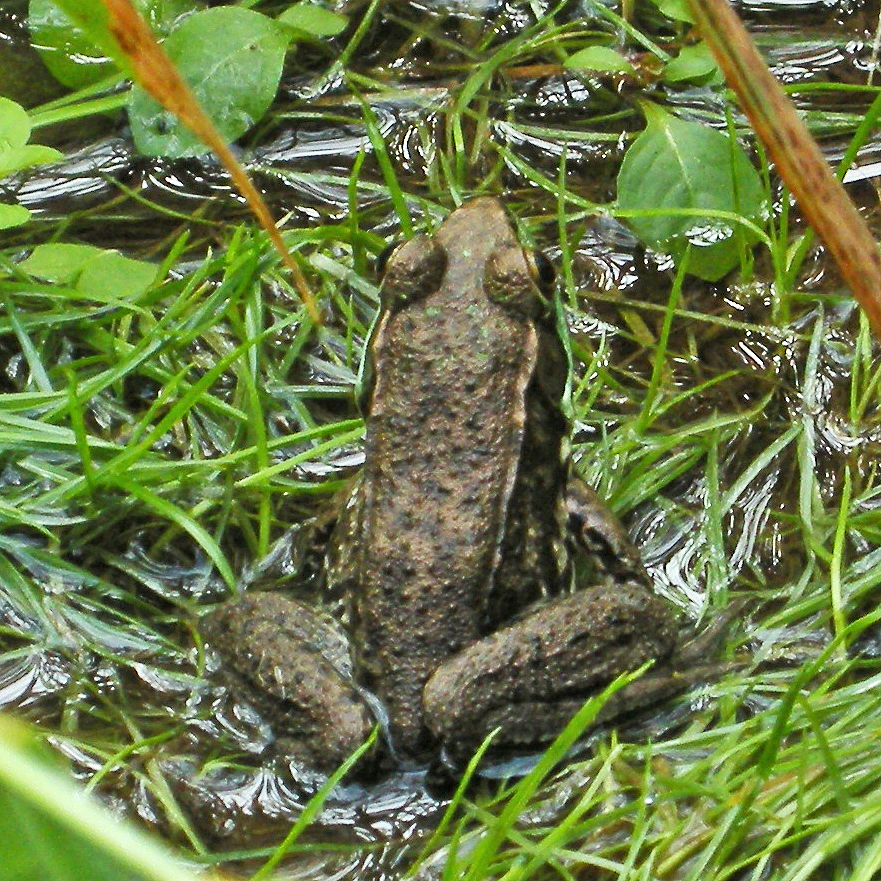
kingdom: Animalia
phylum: Chordata
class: Amphibia
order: Anura
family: Ranidae
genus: Lithobates
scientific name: Lithobates clamitans
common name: Green frog
